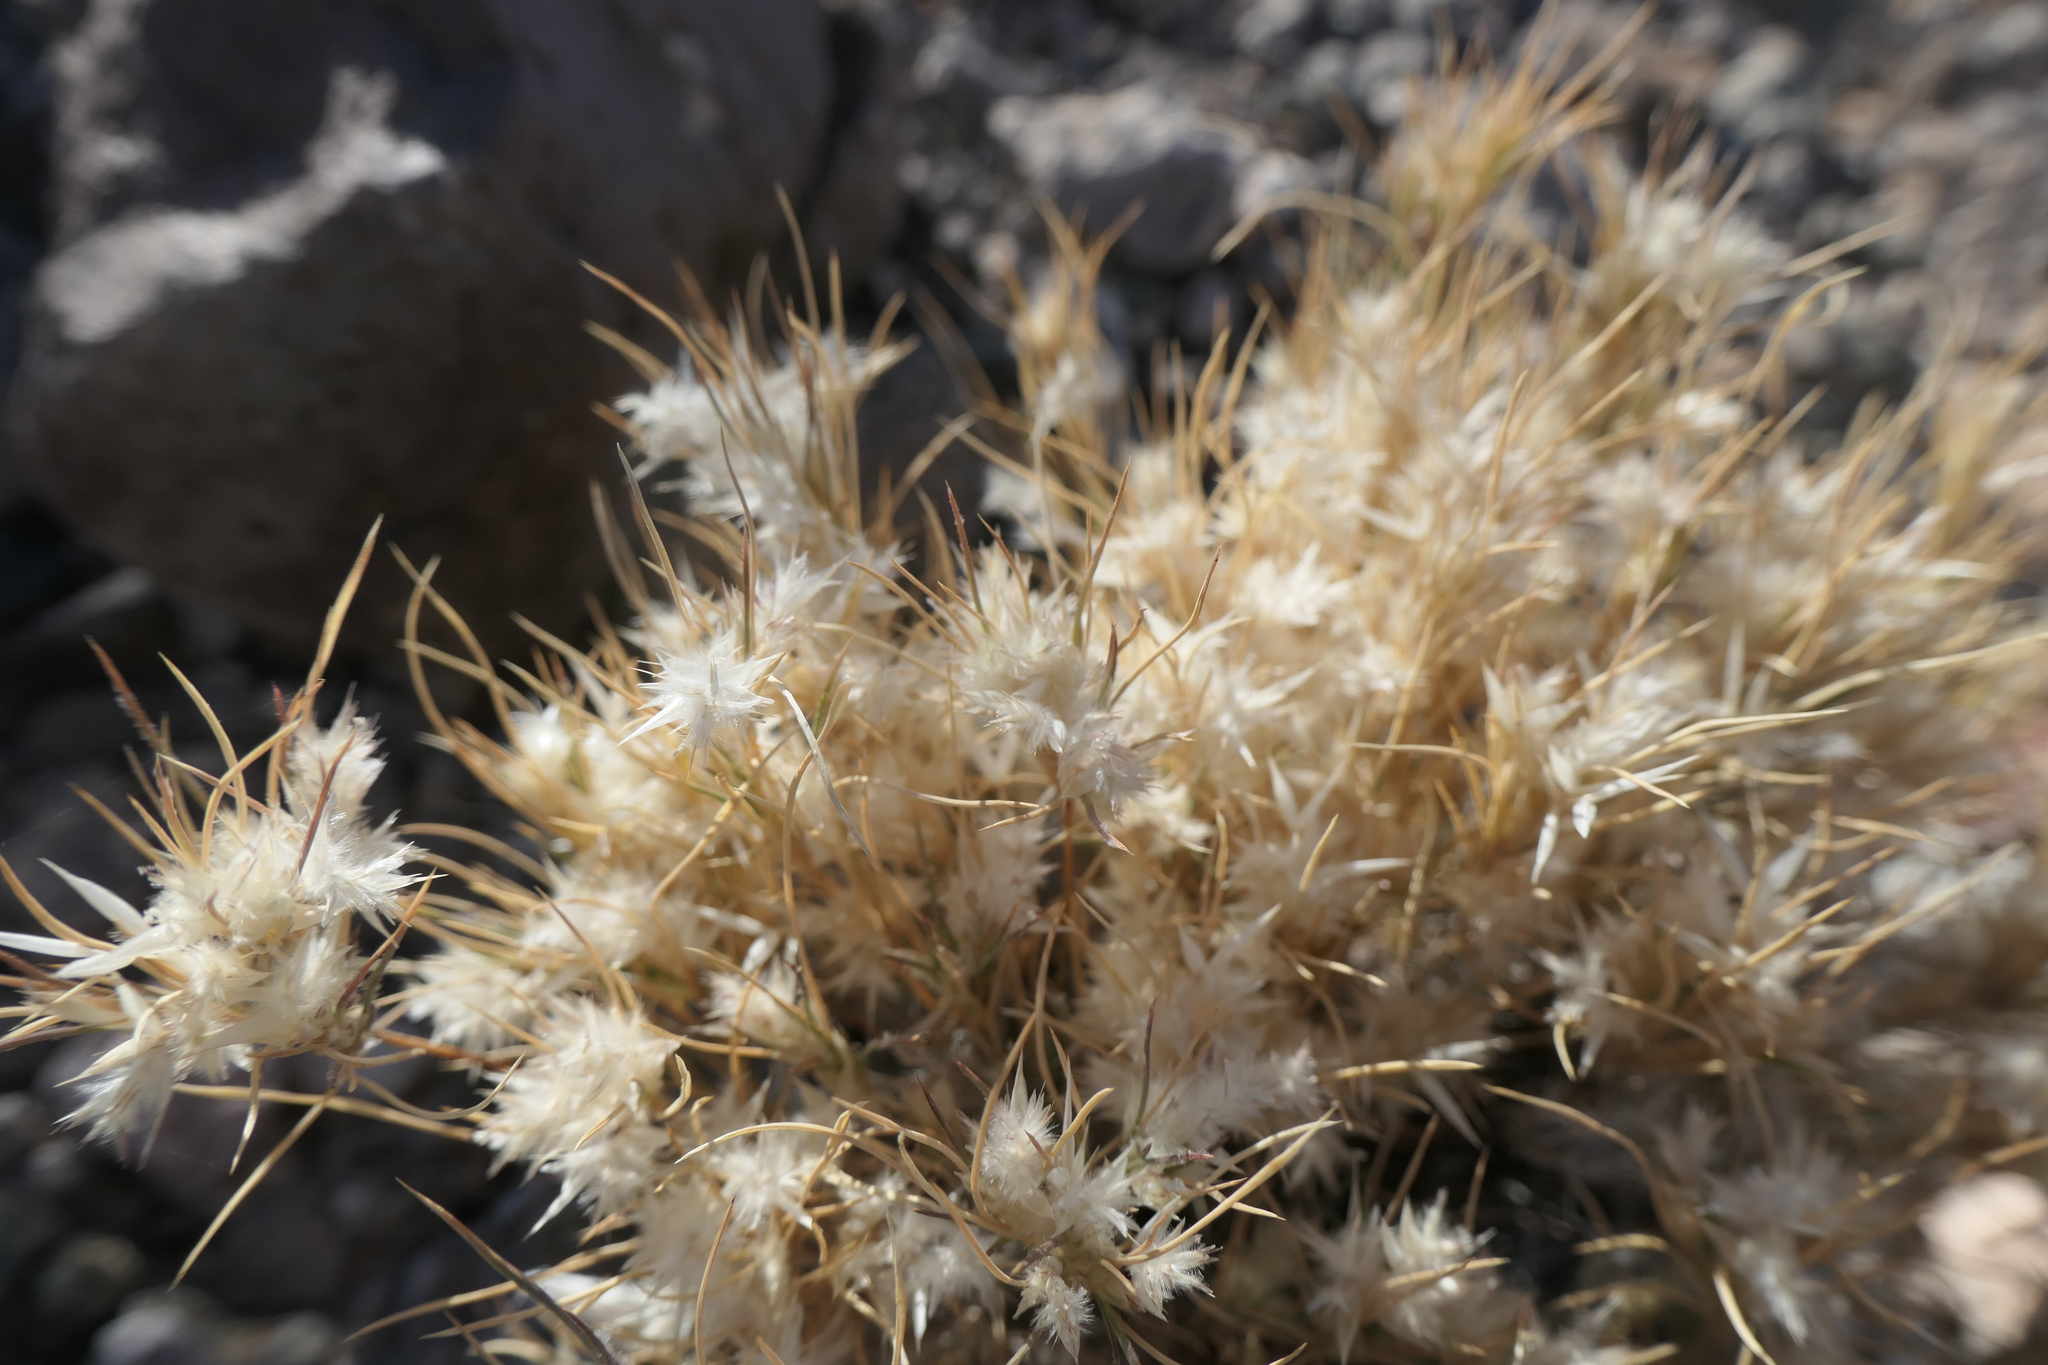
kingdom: Plantae
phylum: Tracheophyta
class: Liliopsida
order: Poales
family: Poaceae
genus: Dasyochloa
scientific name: Dasyochloa pulchella
